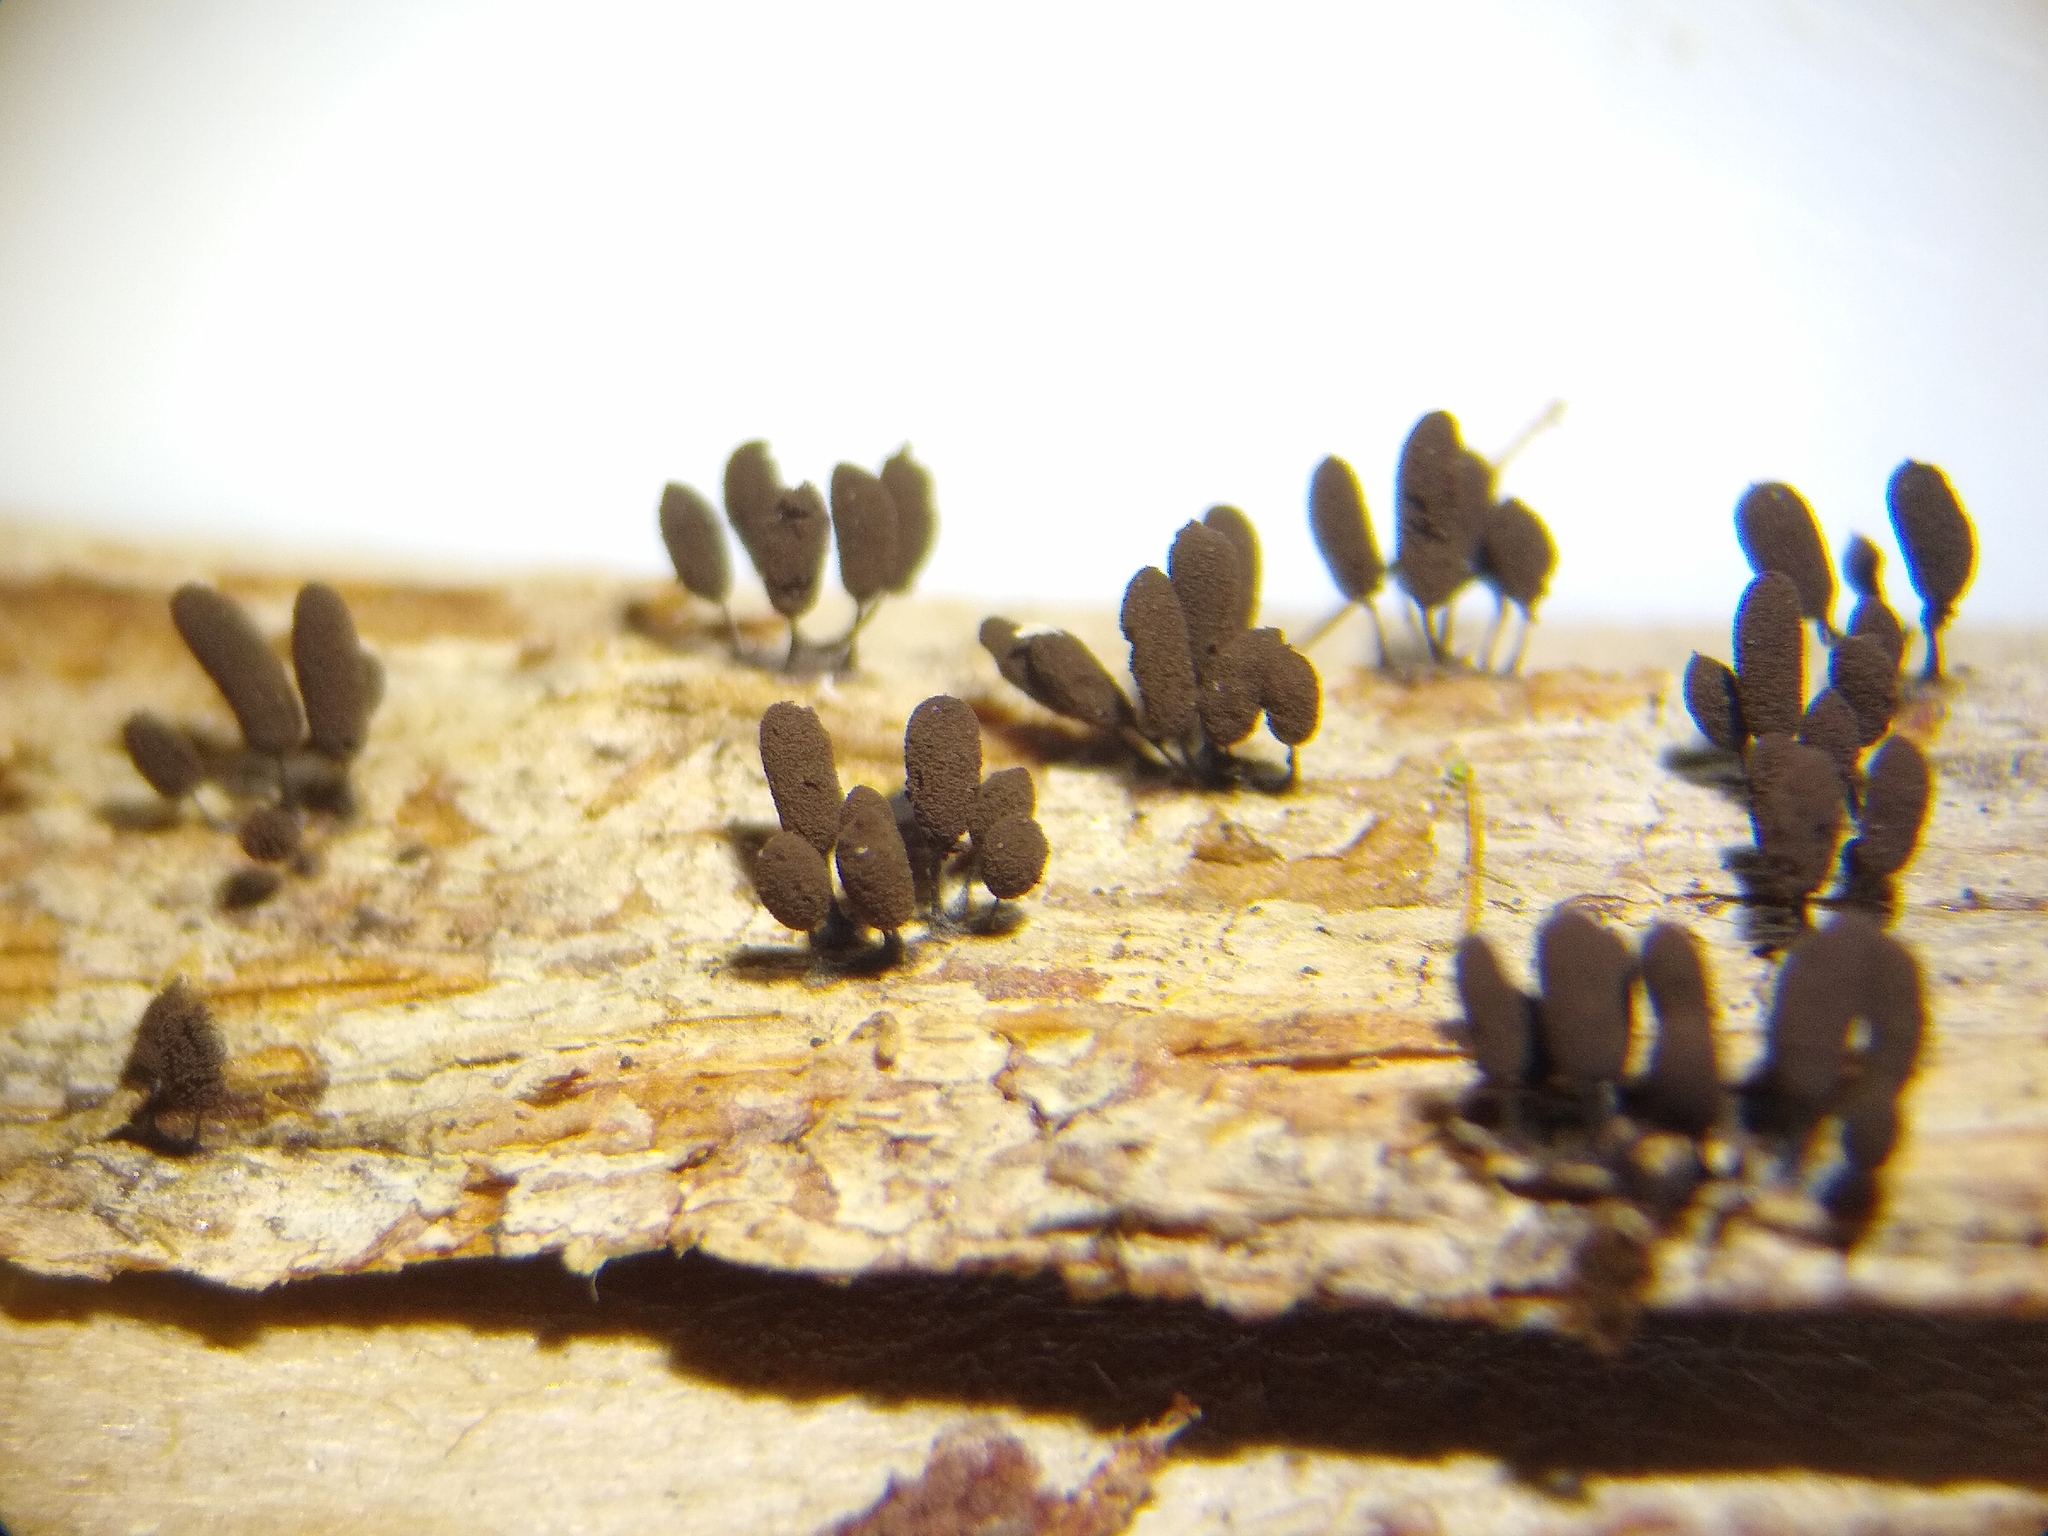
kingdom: Protozoa
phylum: Mycetozoa
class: Myxomycetes
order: Stemonitidales
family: Stemonitidaceae
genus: Comatricha
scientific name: Comatricha anomala
